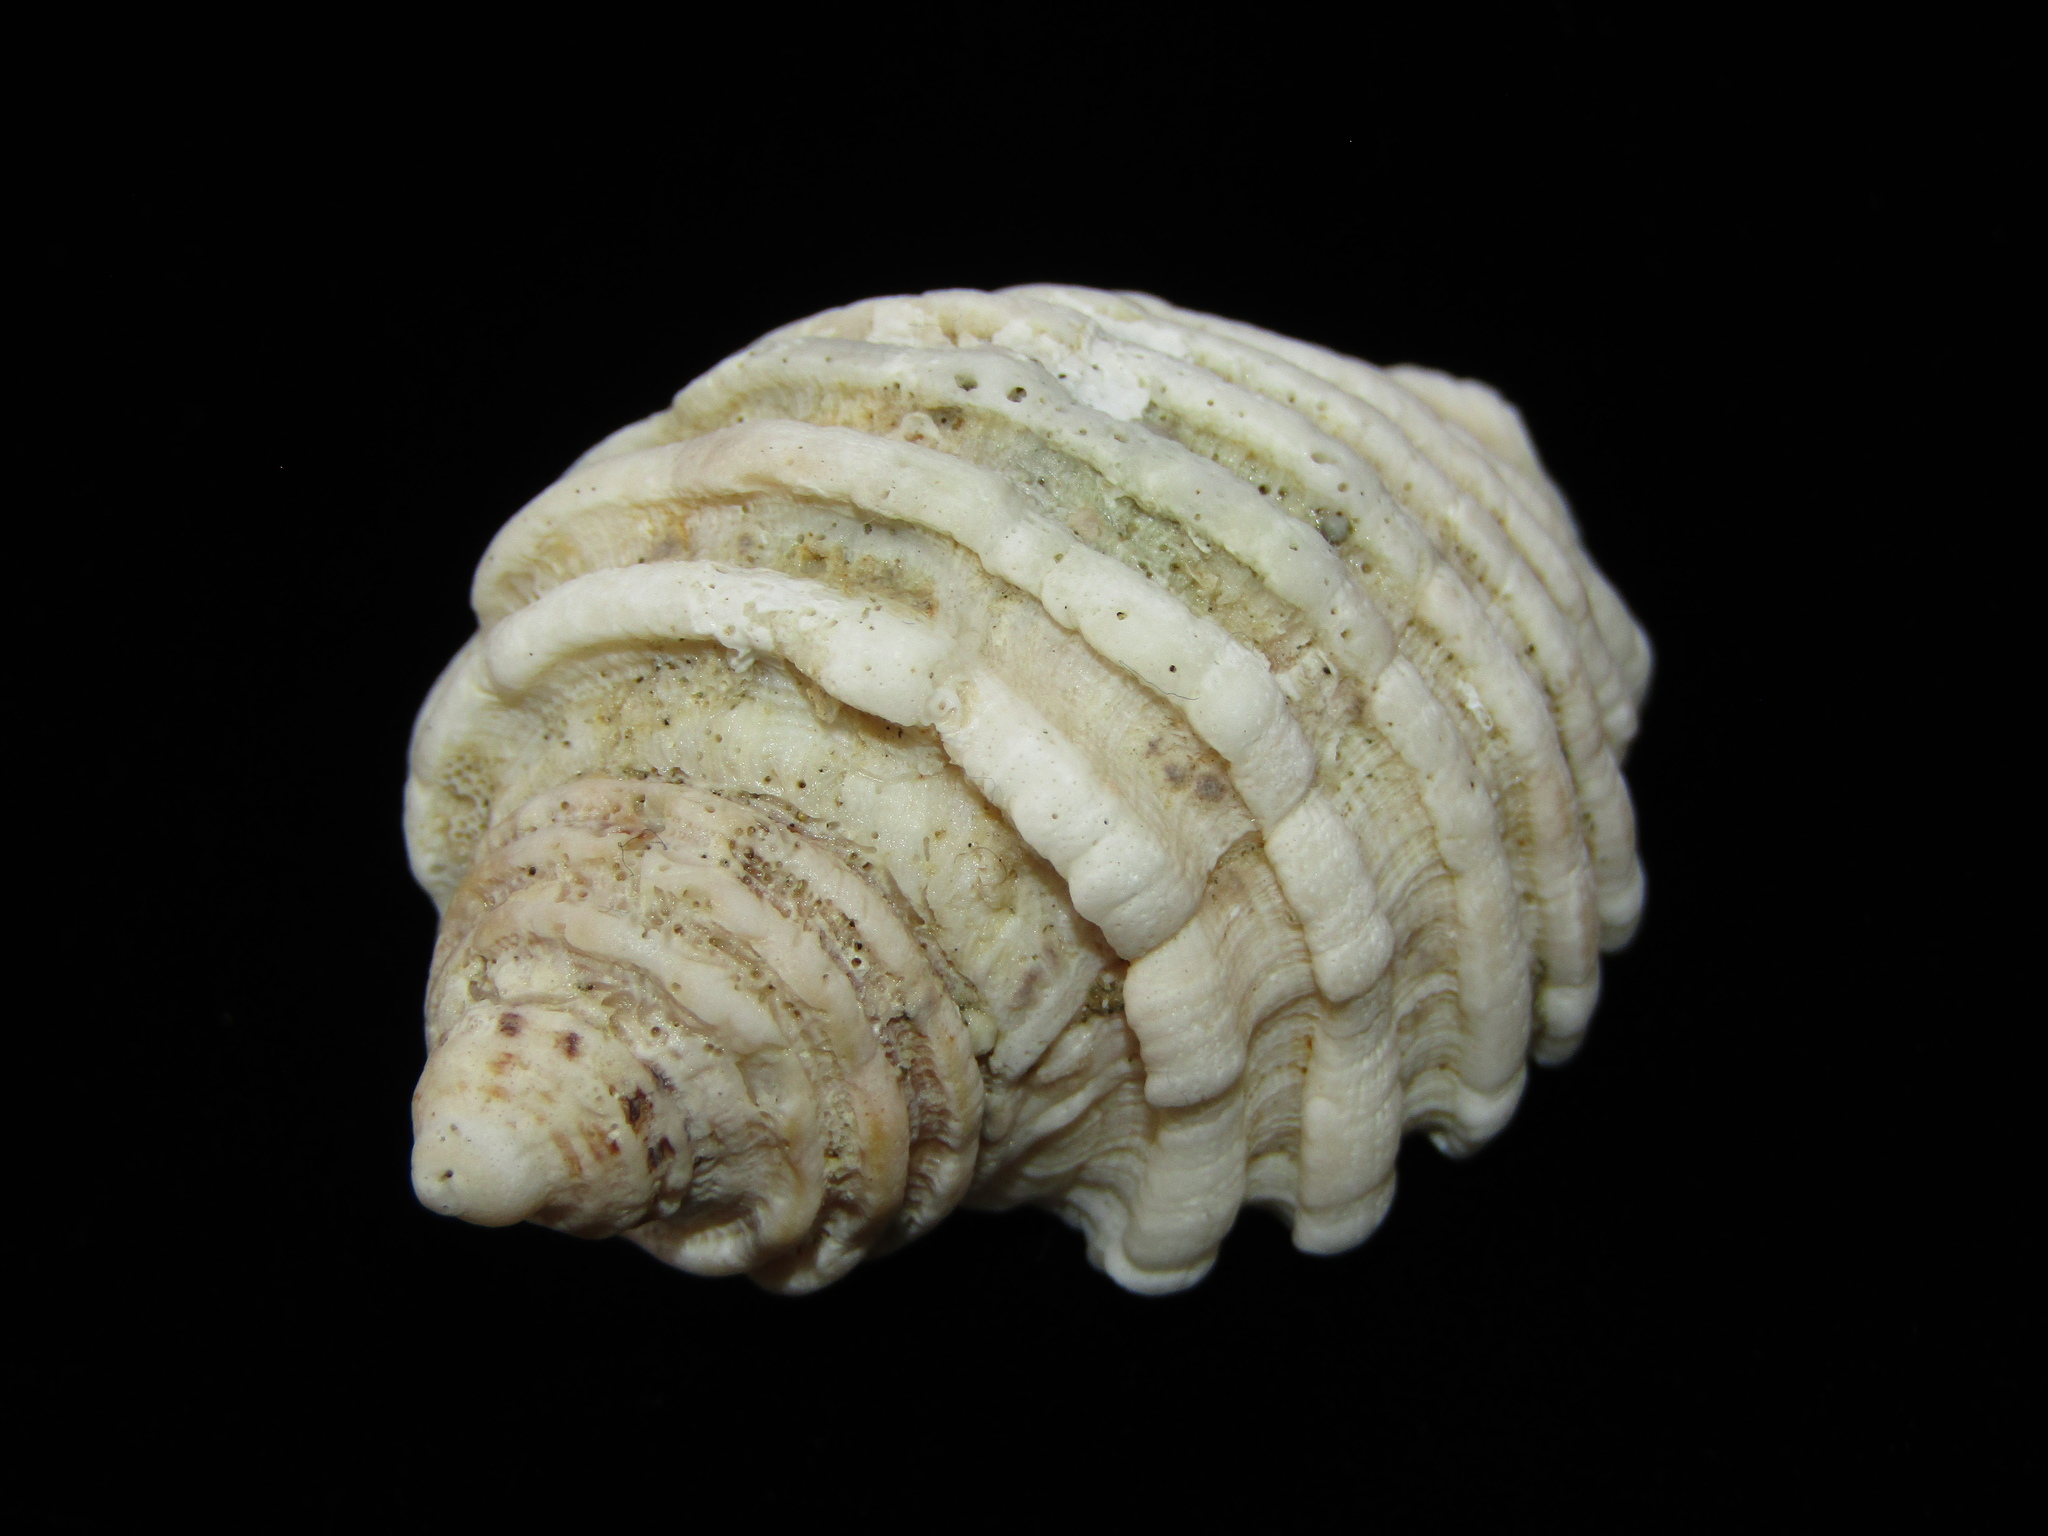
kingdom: Animalia
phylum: Mollusca
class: Gastropoda
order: Neogastropoda
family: Muricidae
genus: Dicathais
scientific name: Dicathais orbita
